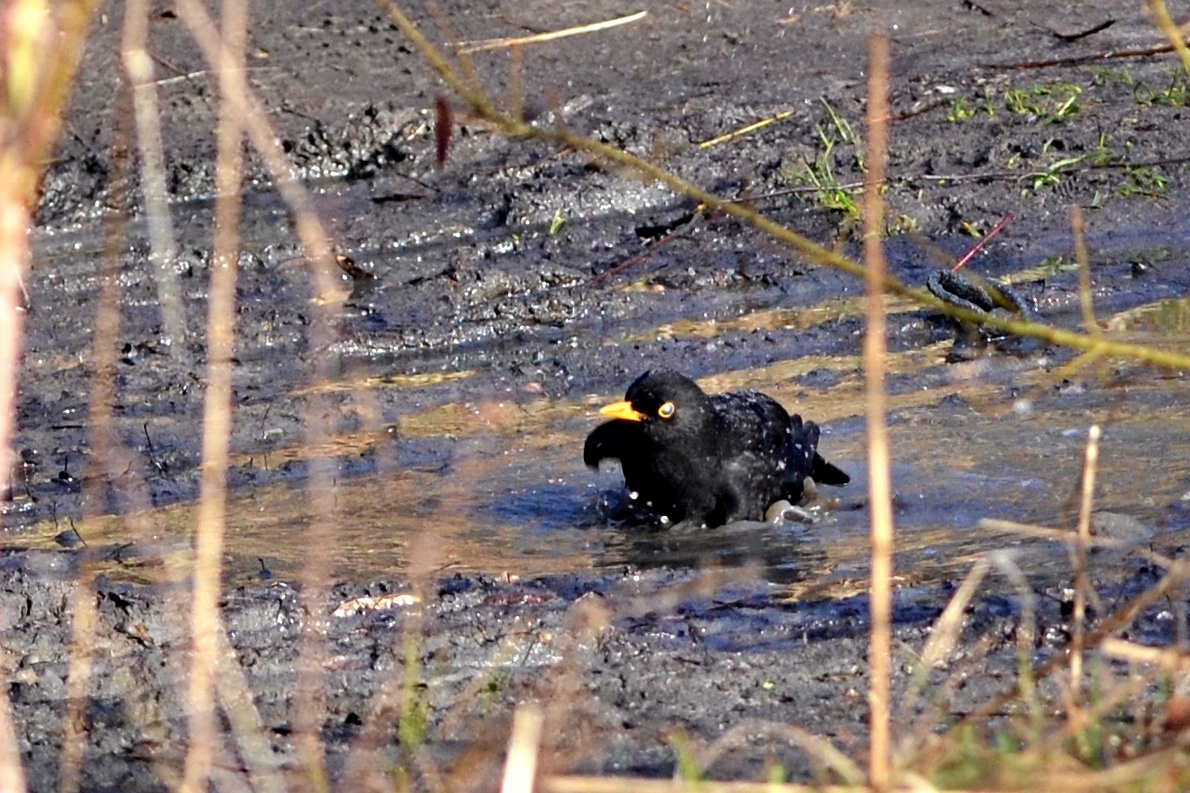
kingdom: Animalia
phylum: Chordata
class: Aves
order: Passeriformes
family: Turdidae
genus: Turdus
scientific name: Turdus merula
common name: Common blackbird
